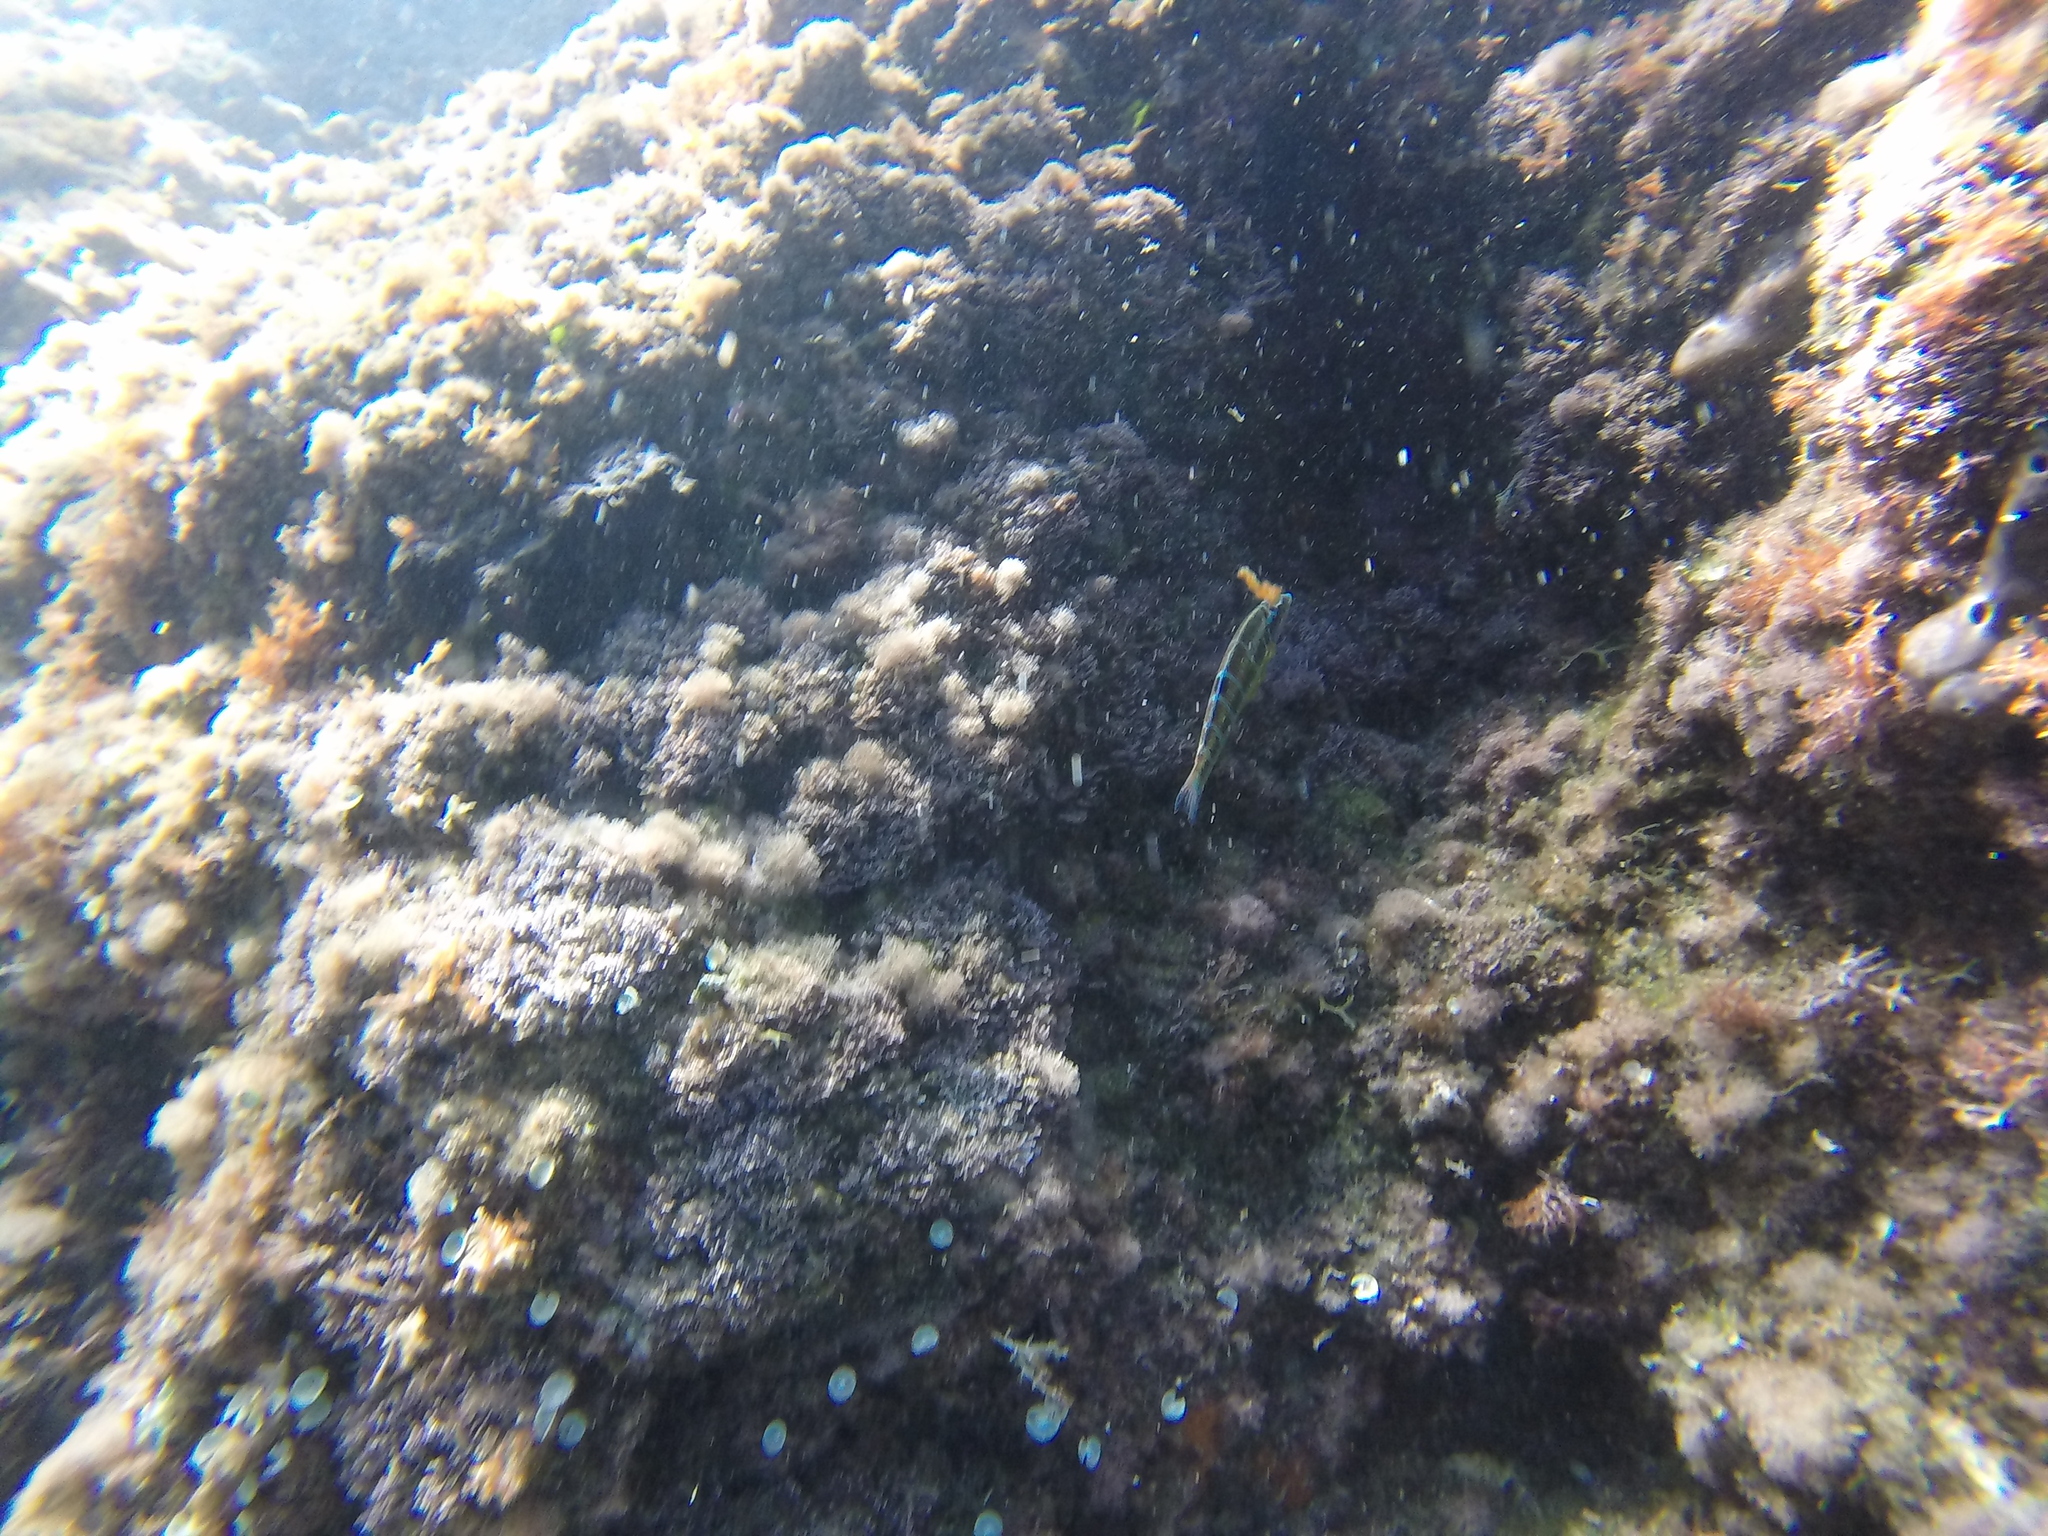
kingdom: Animalia
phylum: Chordata
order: Perciformes
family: Labridae
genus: Thalassoma
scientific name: Thalassoma pavo
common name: Ornate wrasse
